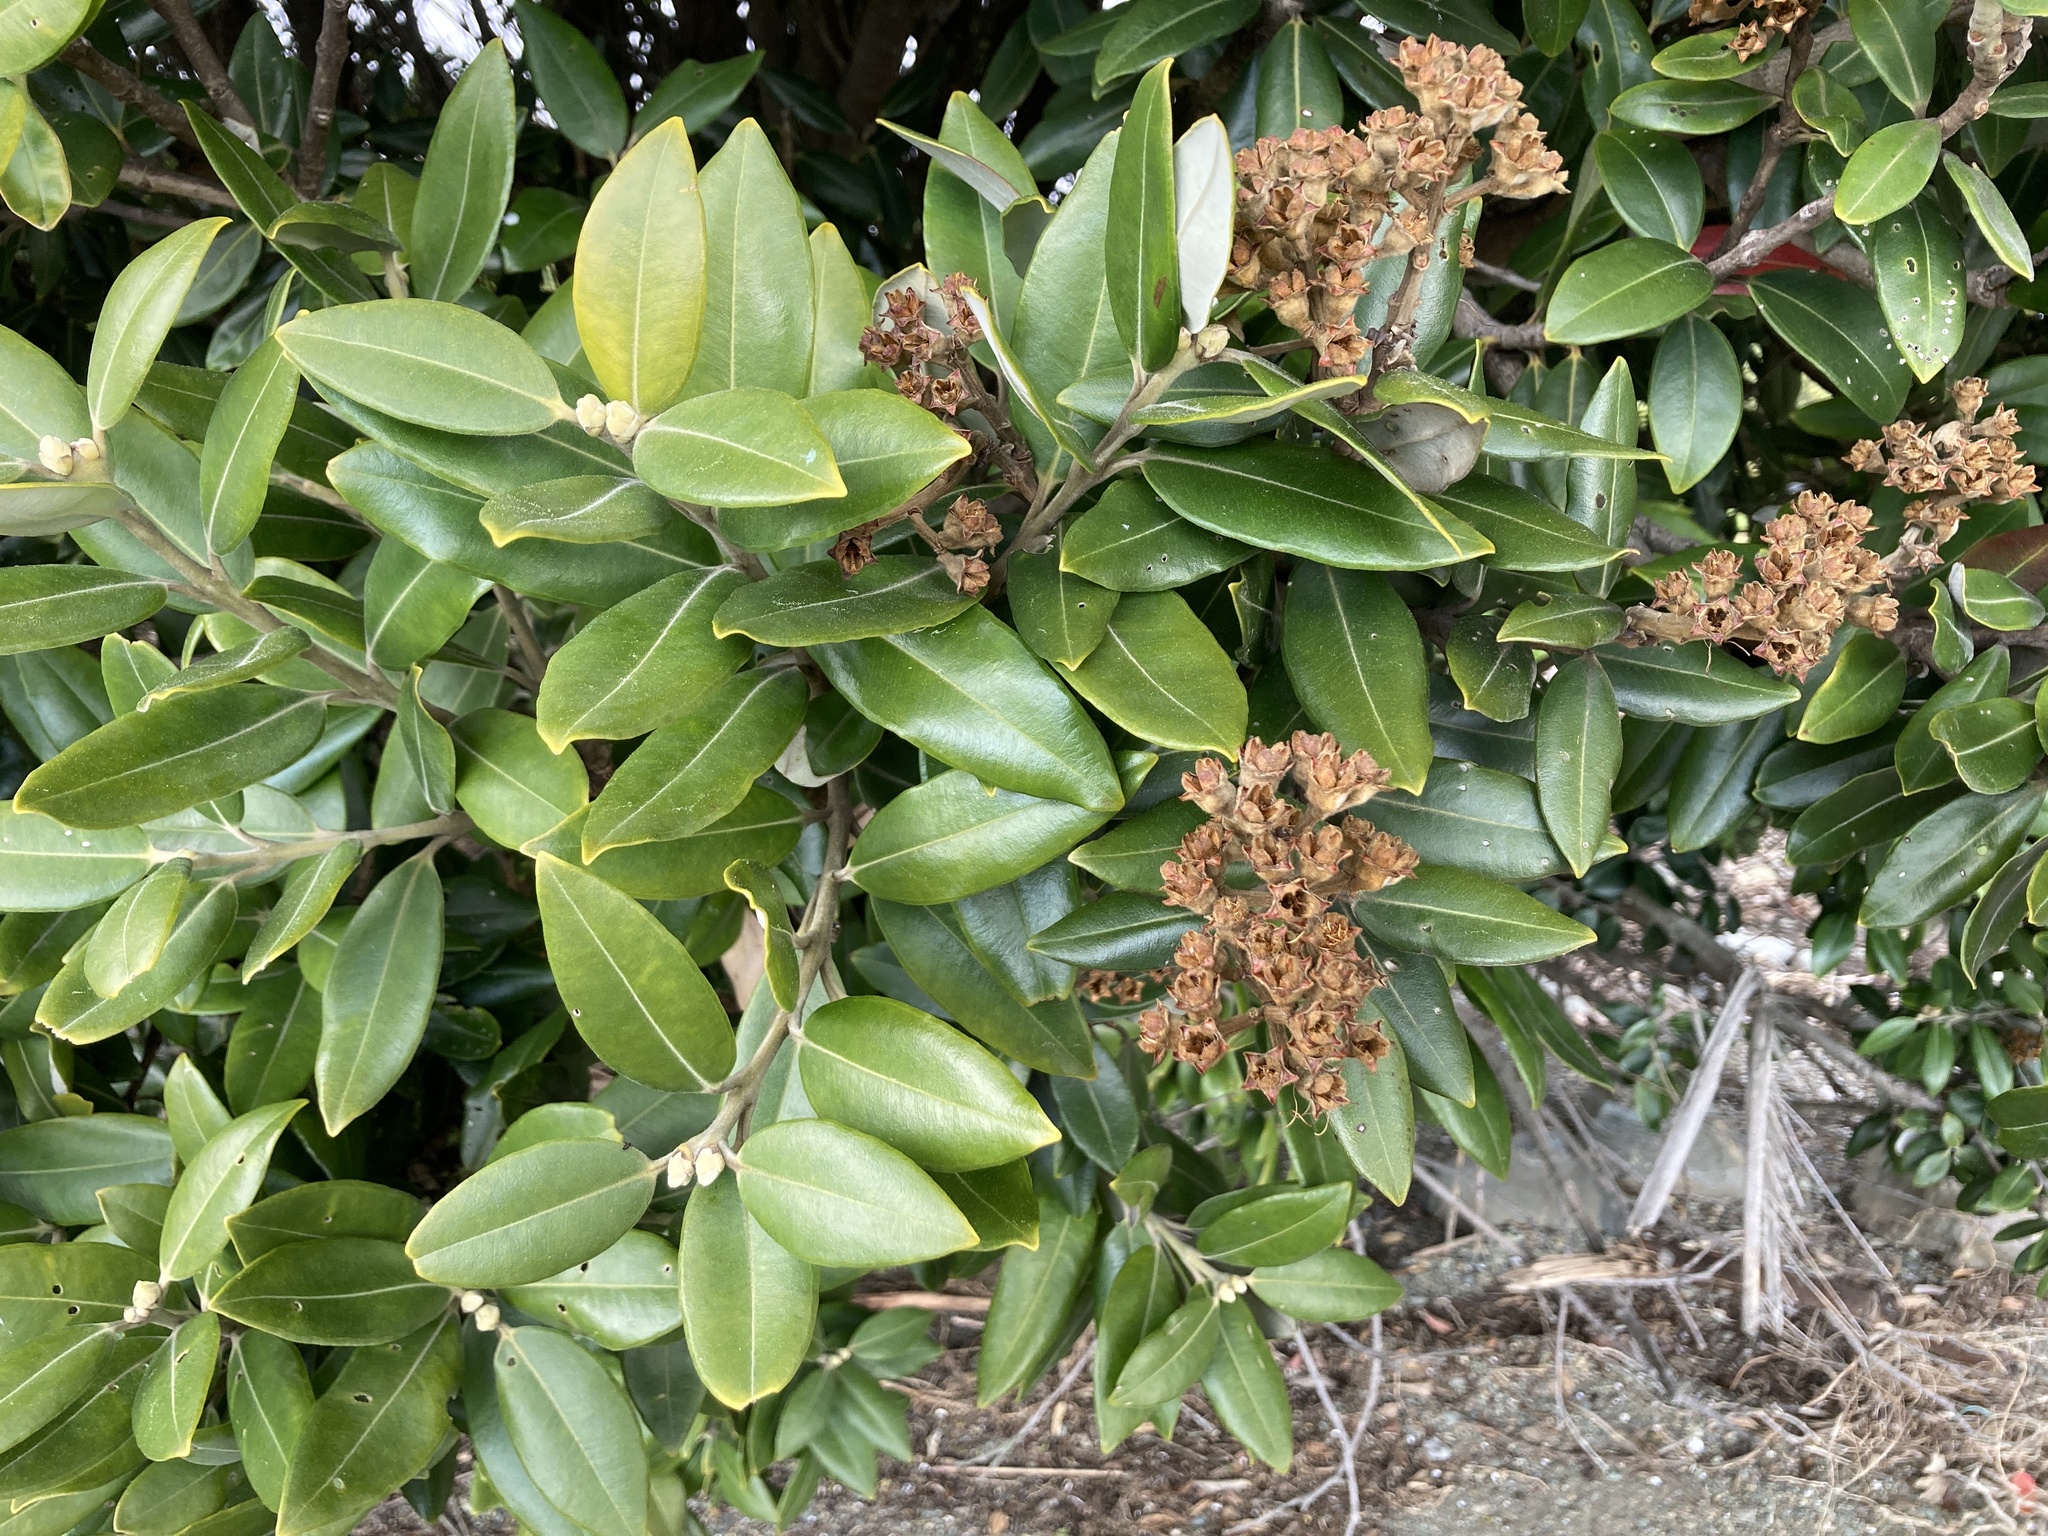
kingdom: Plantae
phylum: Tracheophyta
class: Magnoliopsida
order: Myrtales
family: Myrtaceae
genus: Metrosideros
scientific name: Metrosideros excelsa
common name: New zealand christmastree
